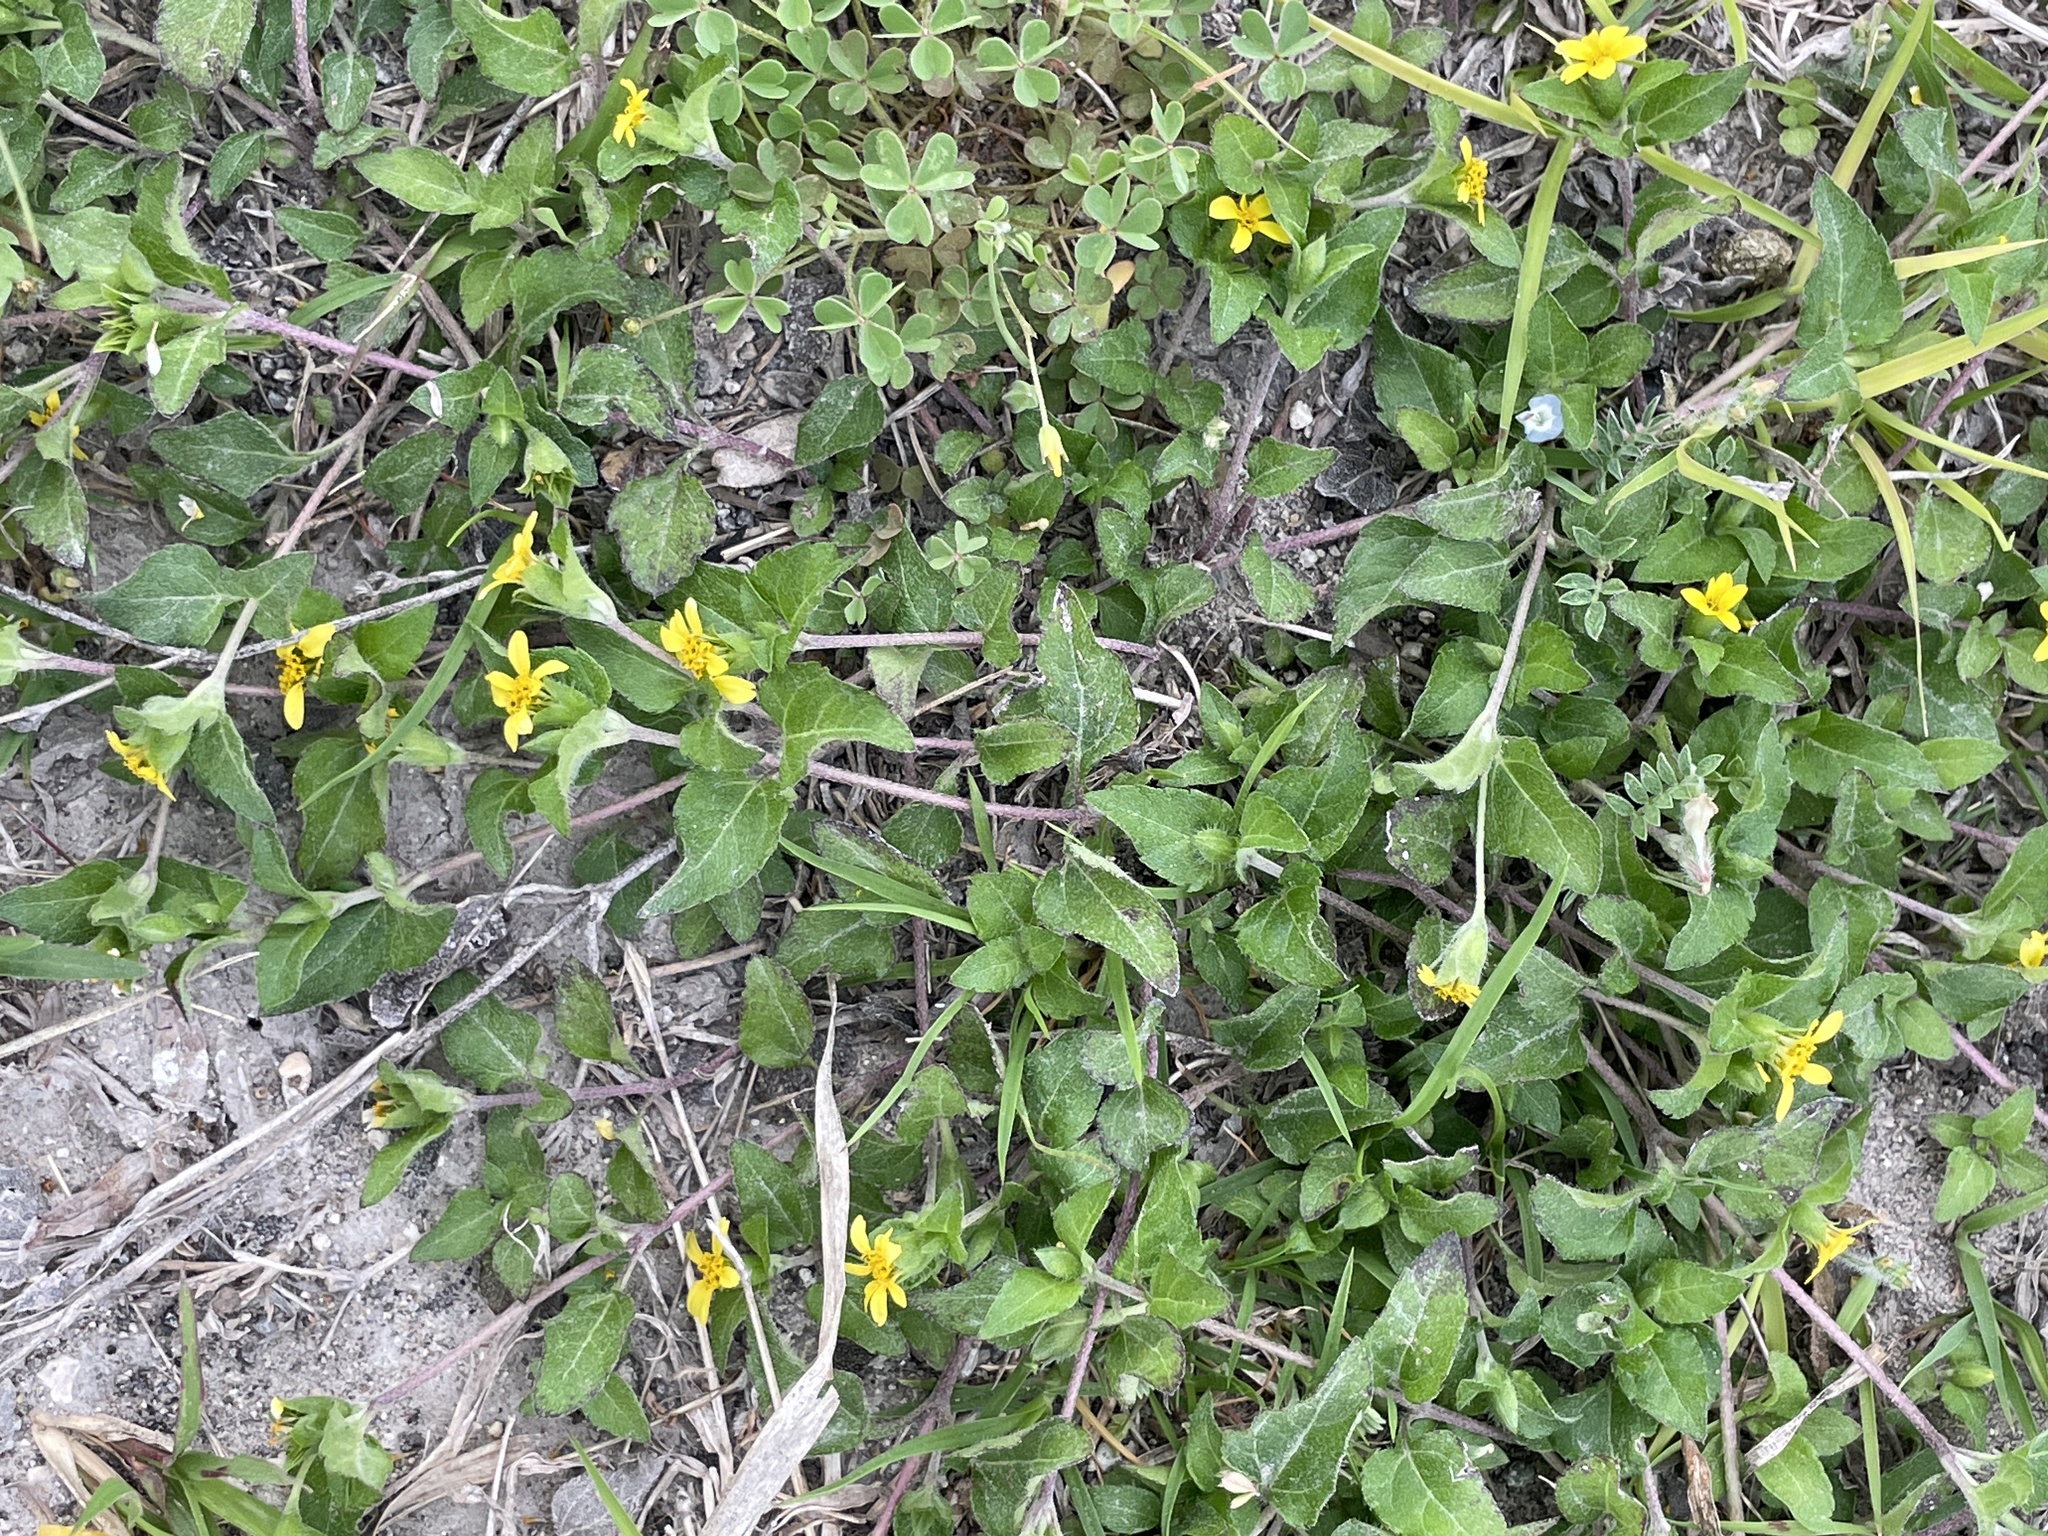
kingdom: Plantae
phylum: Tracheophyta
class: Magnoliopsida
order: Asterales
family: Asteraceae
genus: Calyptocarpus
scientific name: Calyptocarpus vialis
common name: Straggler daisy
